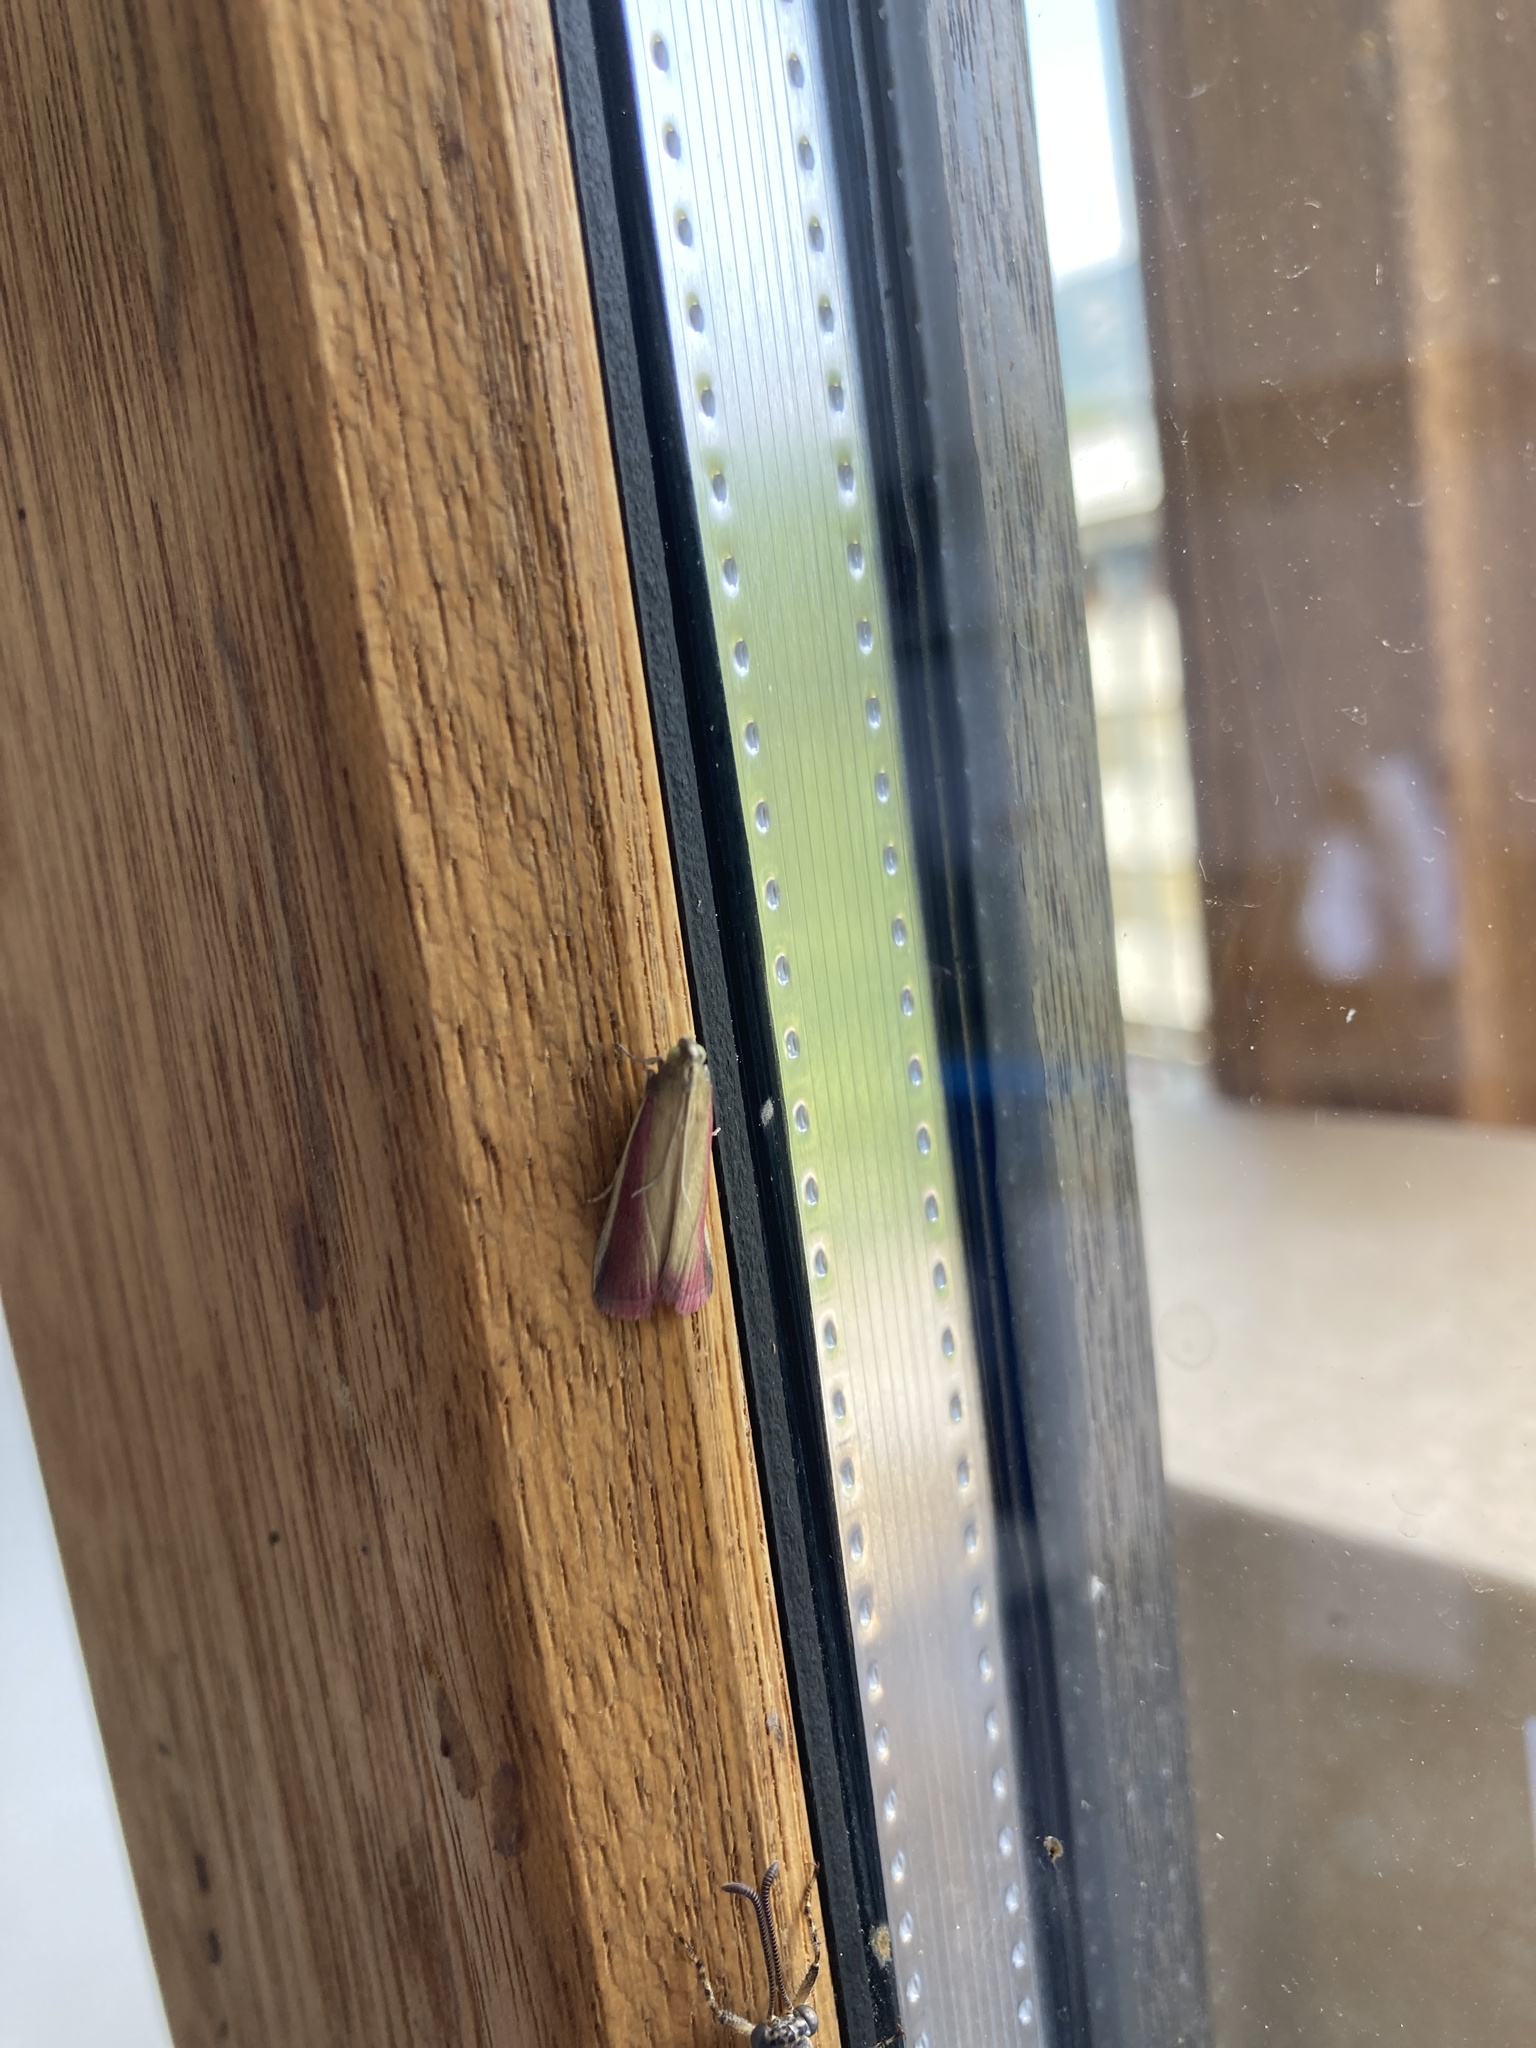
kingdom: Animalia
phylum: Arthropoda
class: Insecta
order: Lepidoptera
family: Pyralidae
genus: Oncocera
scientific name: Oncocera semirubella
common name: Rosy-striped knot-horn
